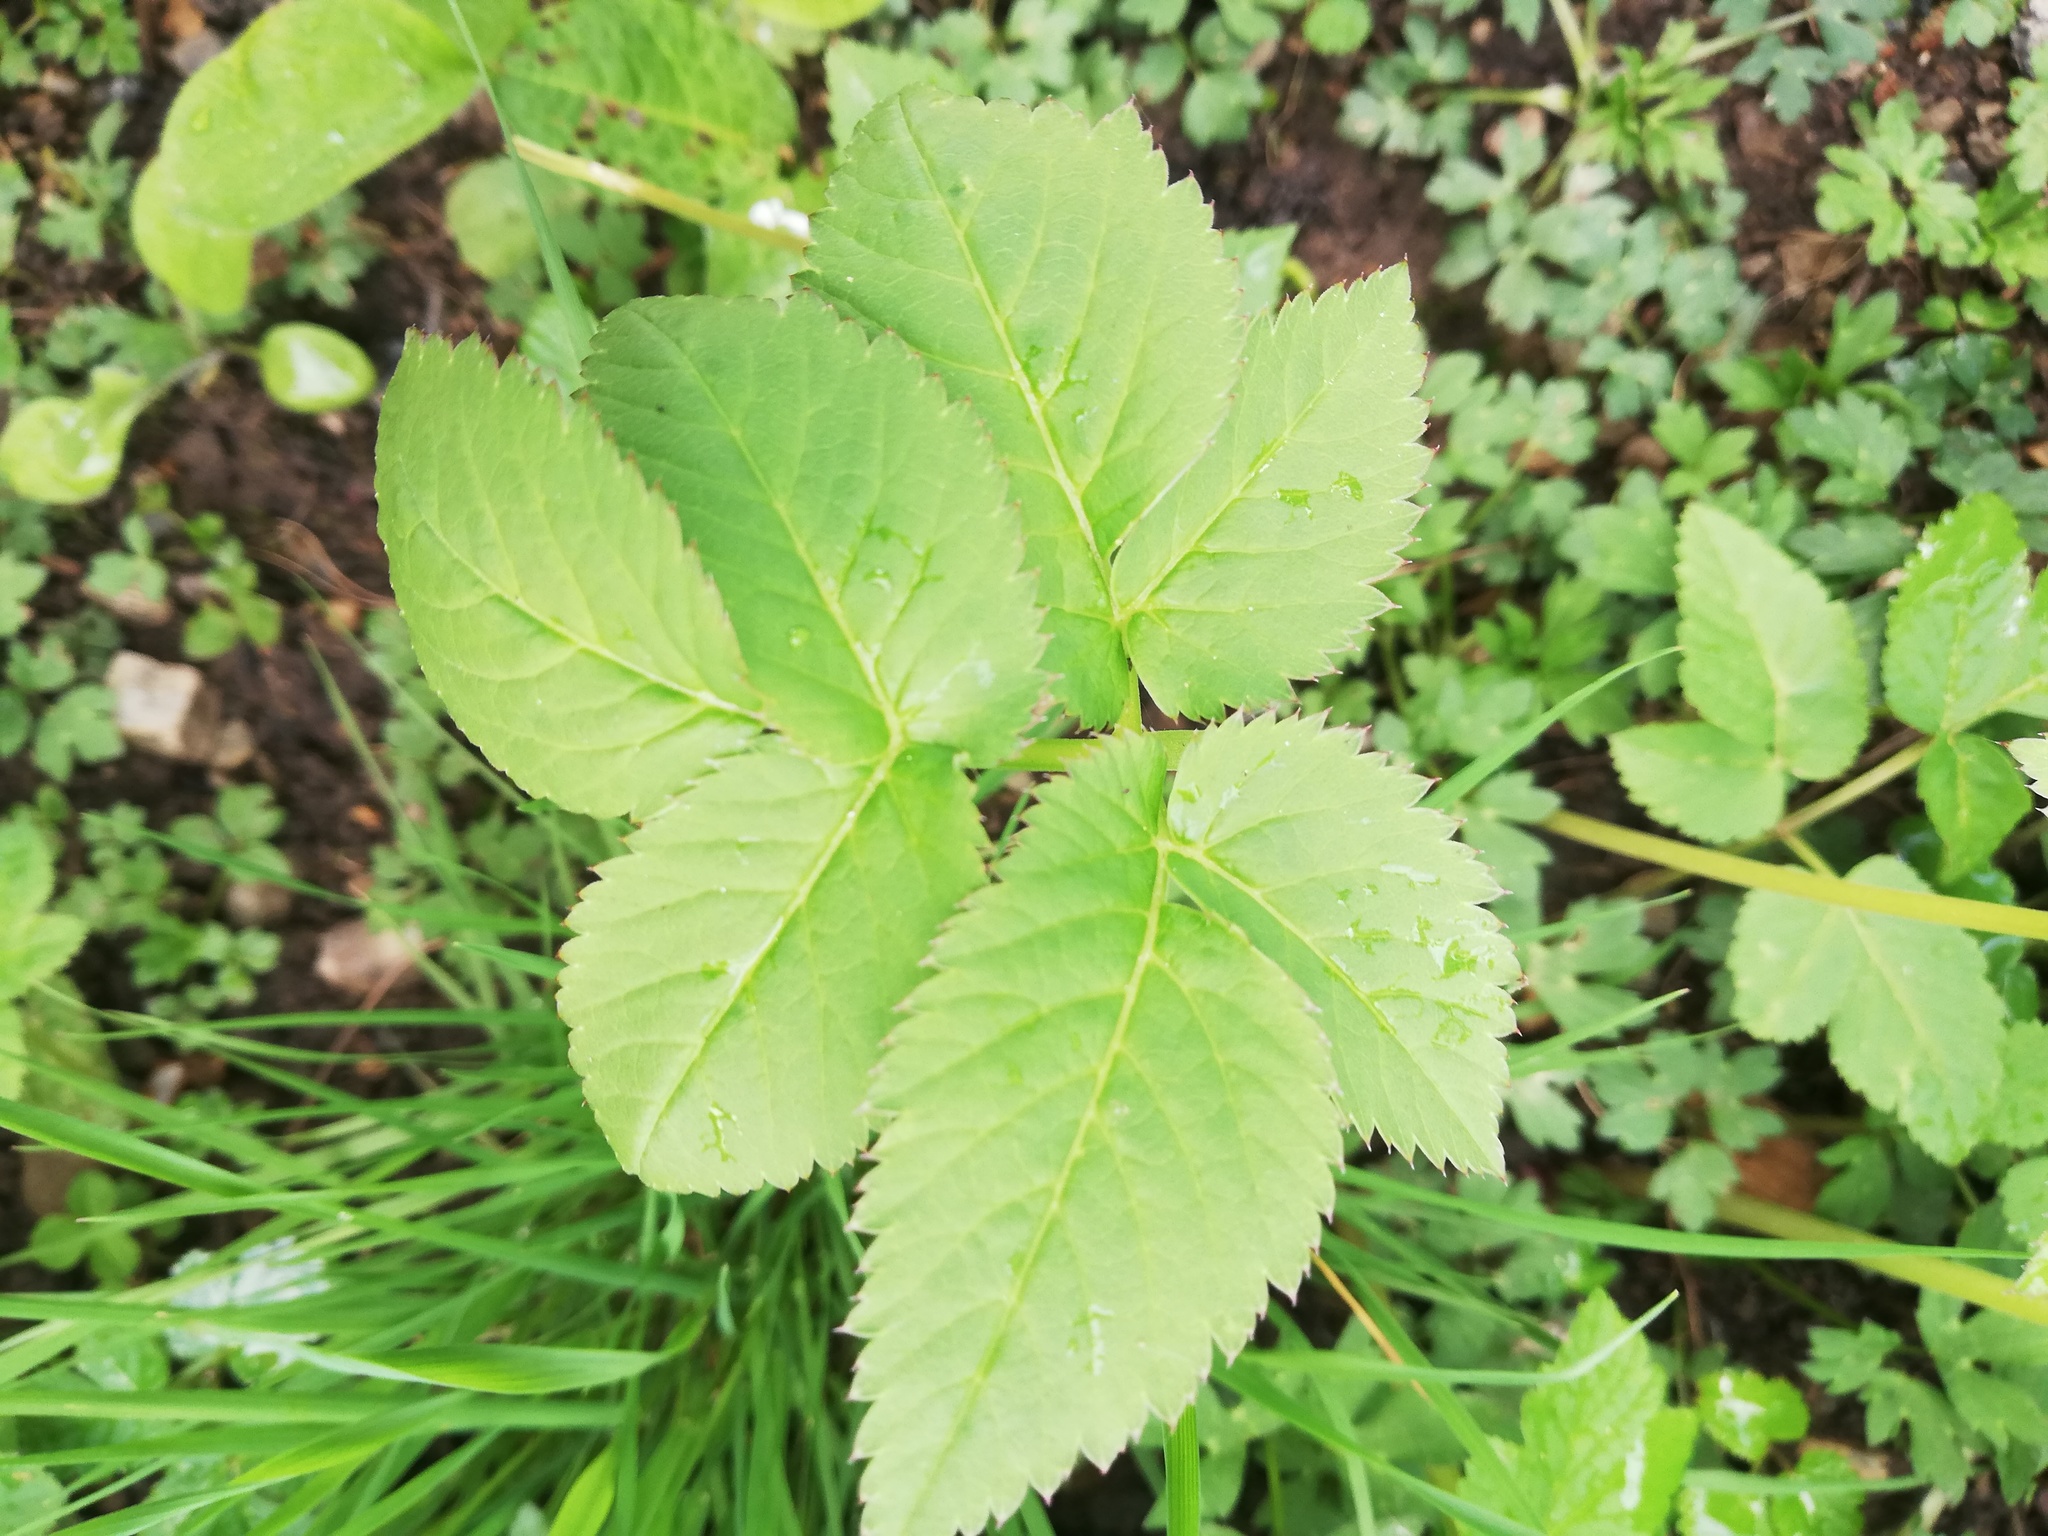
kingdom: Plantae
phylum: Tracheophyta
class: Magnoliopsida
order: Apiales
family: Apiaceae
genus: Aegopodium
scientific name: Aegopodium podagraria
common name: Ground-elder
